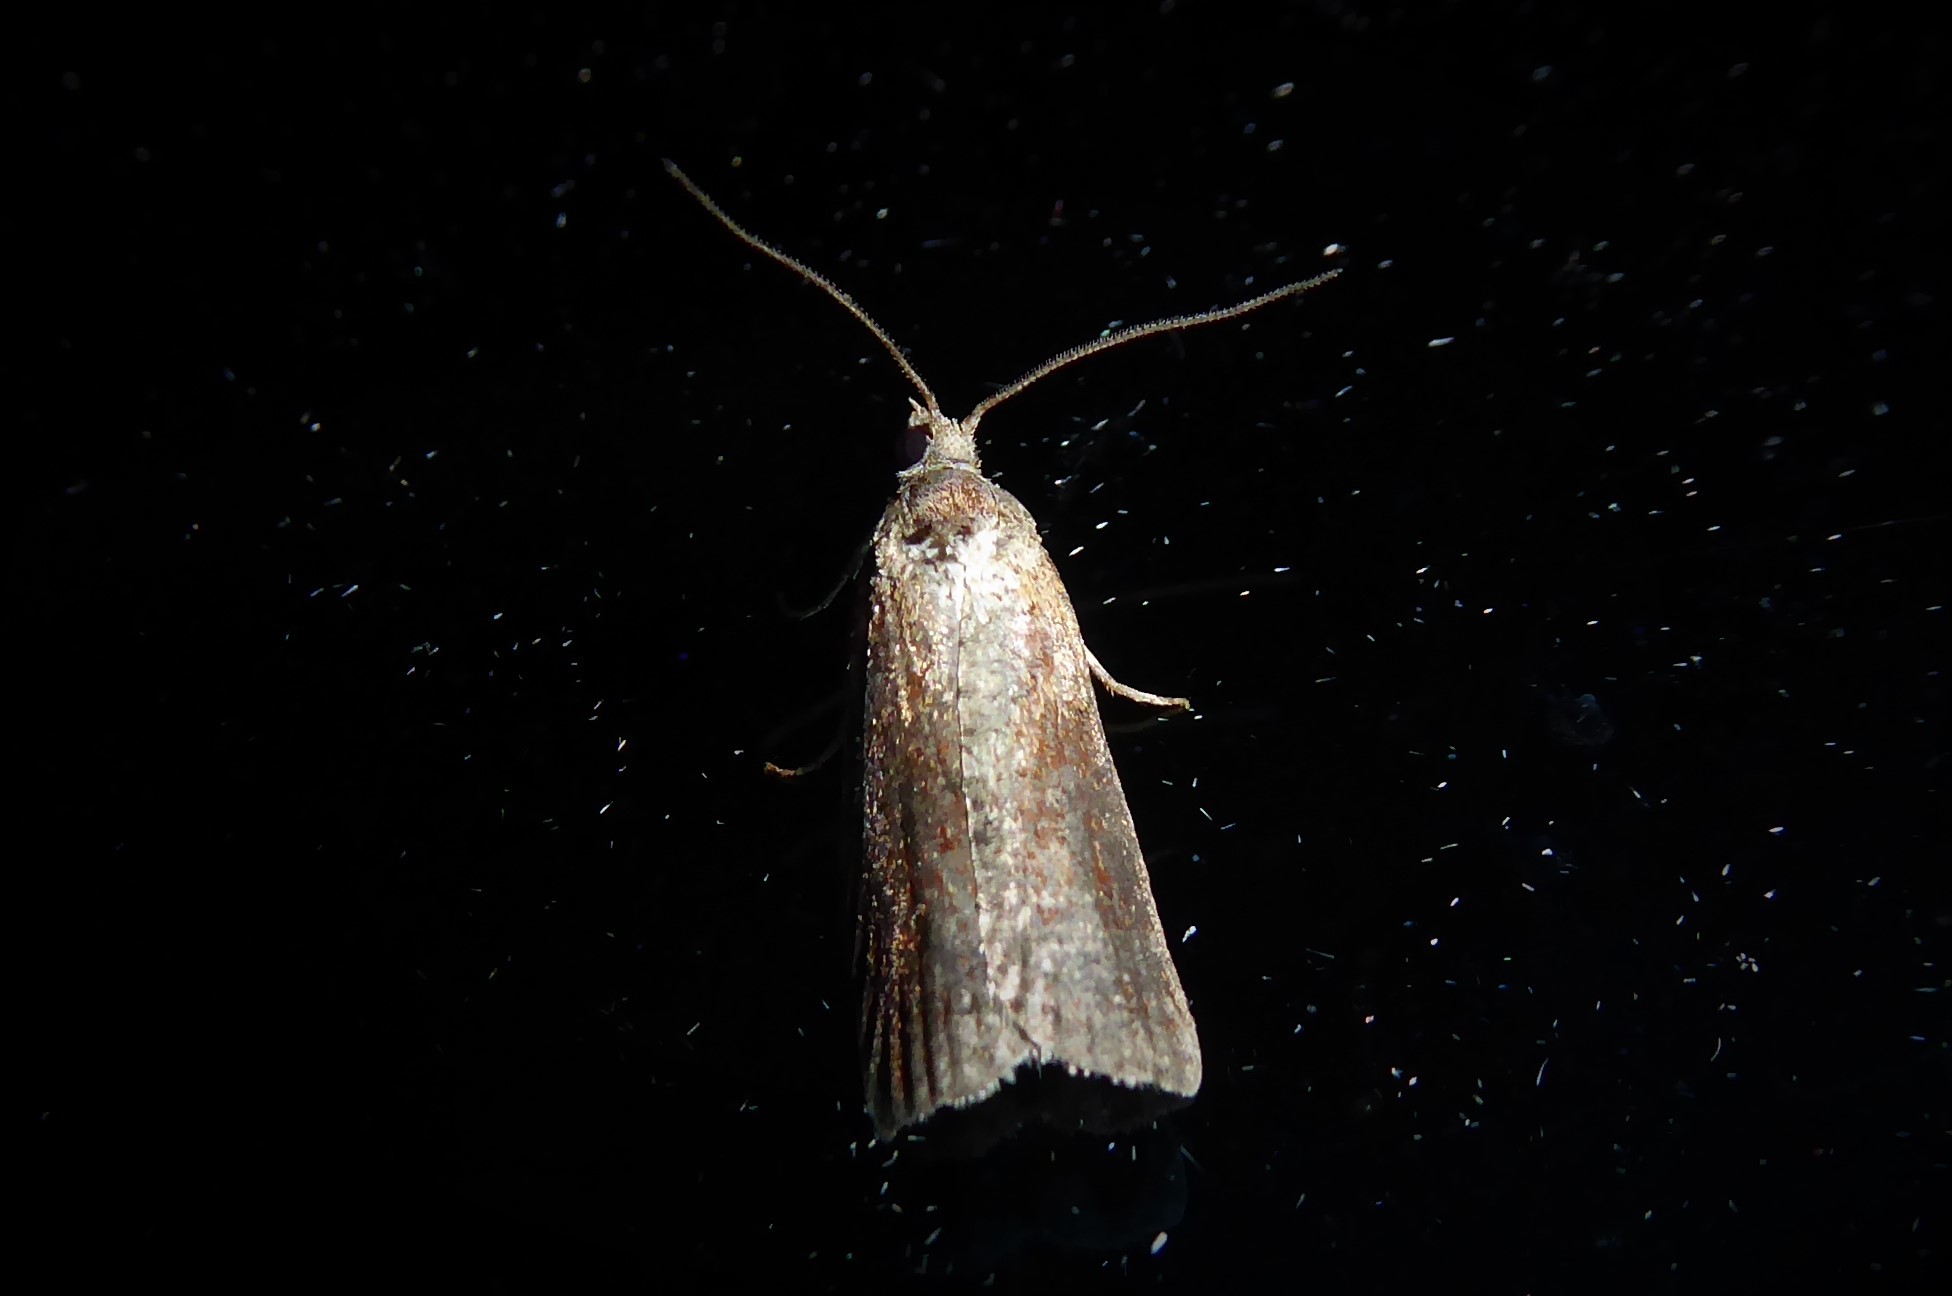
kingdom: Animalia
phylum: Arthropoda
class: Insecta
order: Lepidoptera
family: Tortricidae
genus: Harmologa
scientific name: Harmologa oblongana
